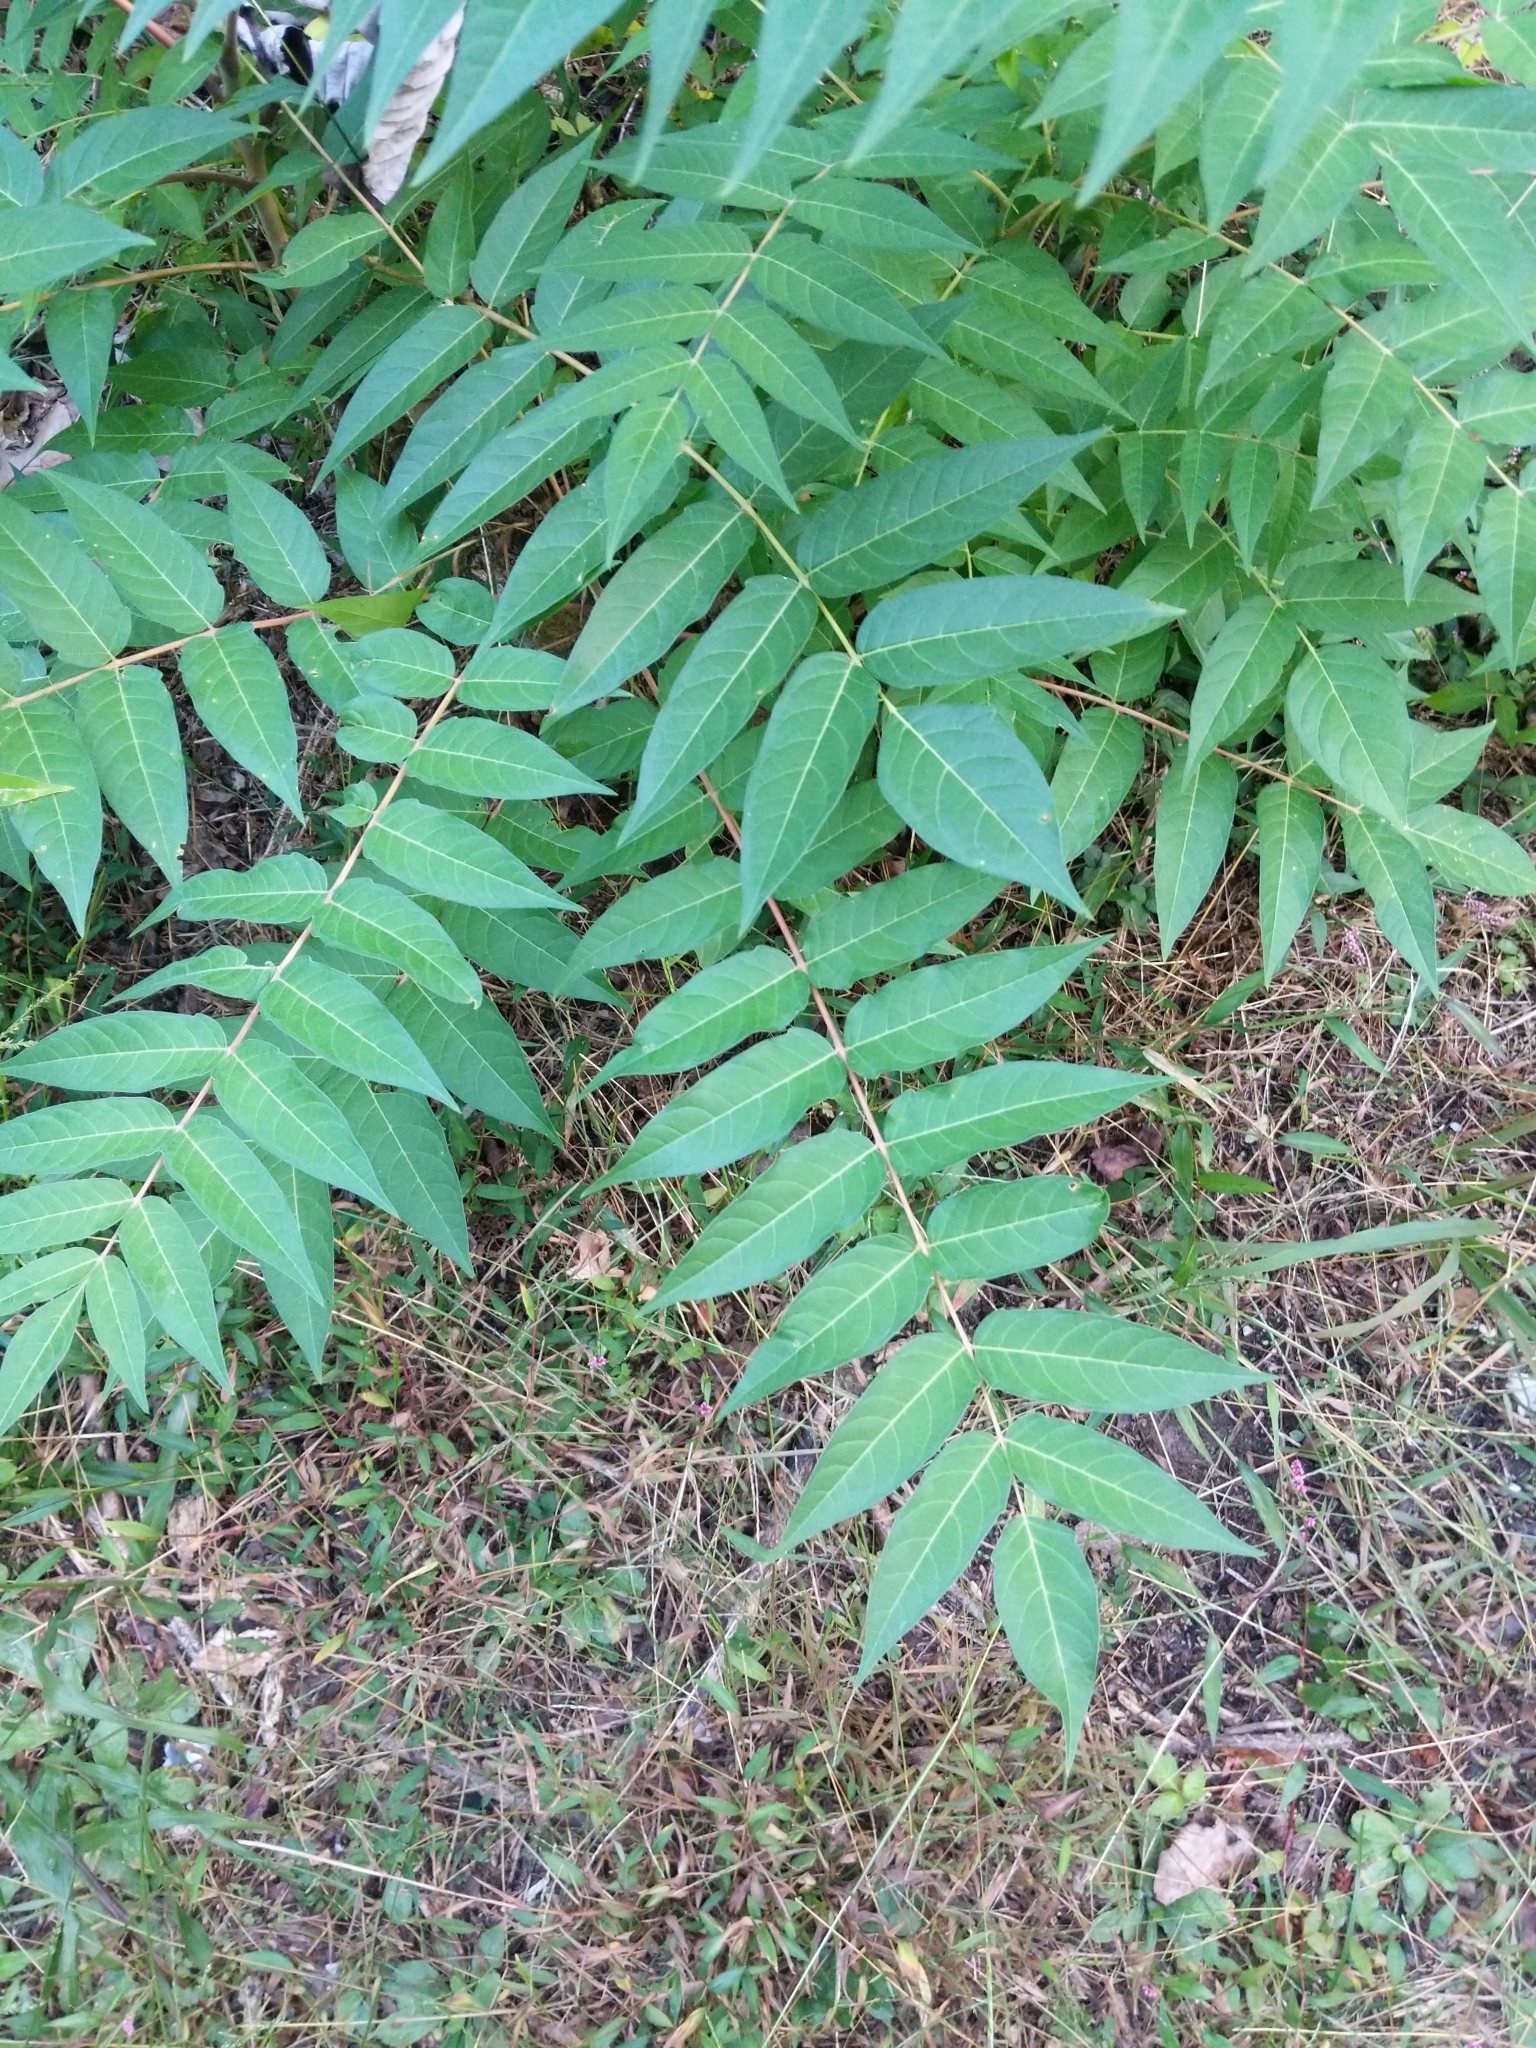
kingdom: Plantae
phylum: Tracheophyta
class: Magnoliopsida
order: Sapindales
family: Simaroubaceae
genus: Ailanthus
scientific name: Ailanthus altissima
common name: Tree-of-heaven
